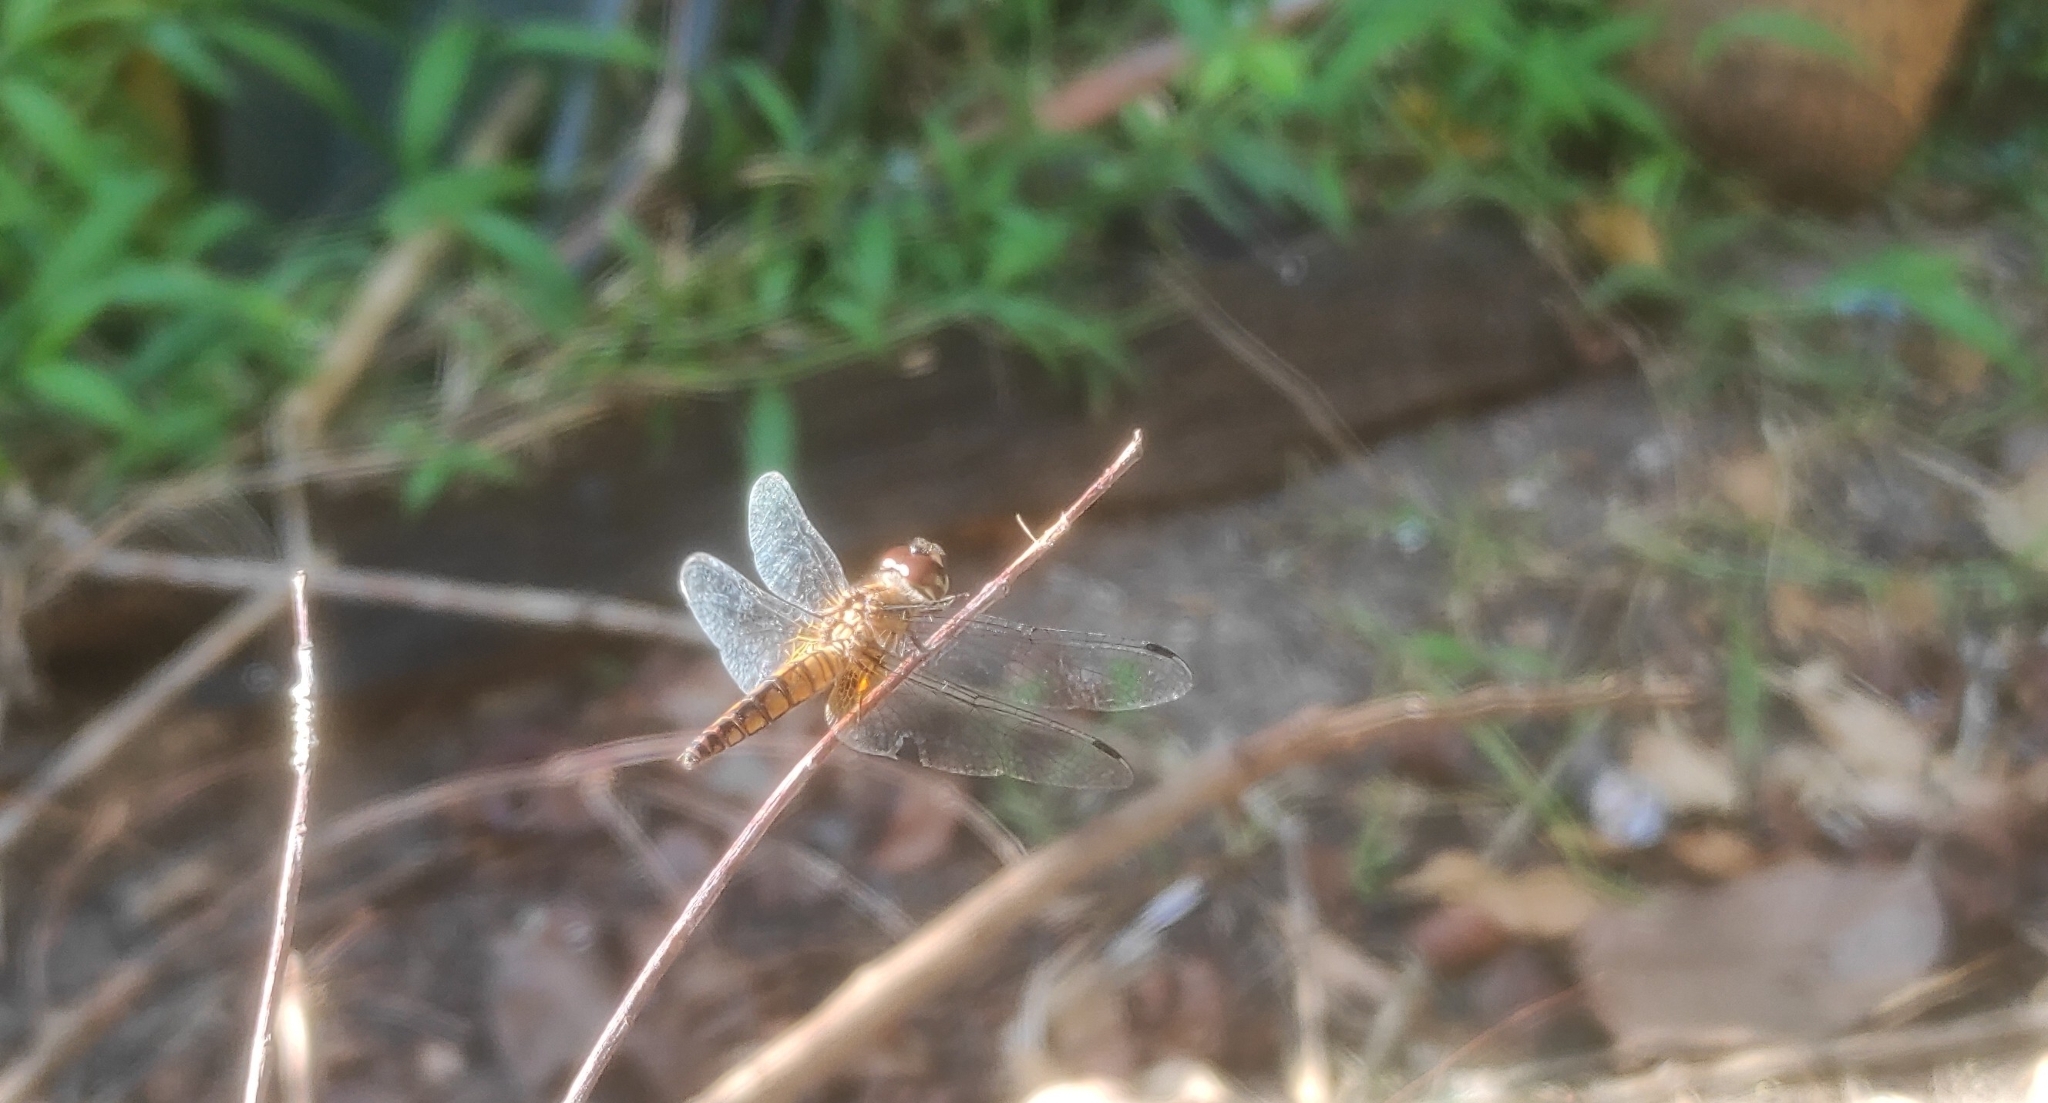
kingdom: Animalia
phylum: Arthropoda
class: Insecta
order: Odonata
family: Libellulidae
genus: Aethriamanta
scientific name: Aethriamanta brevipennis
